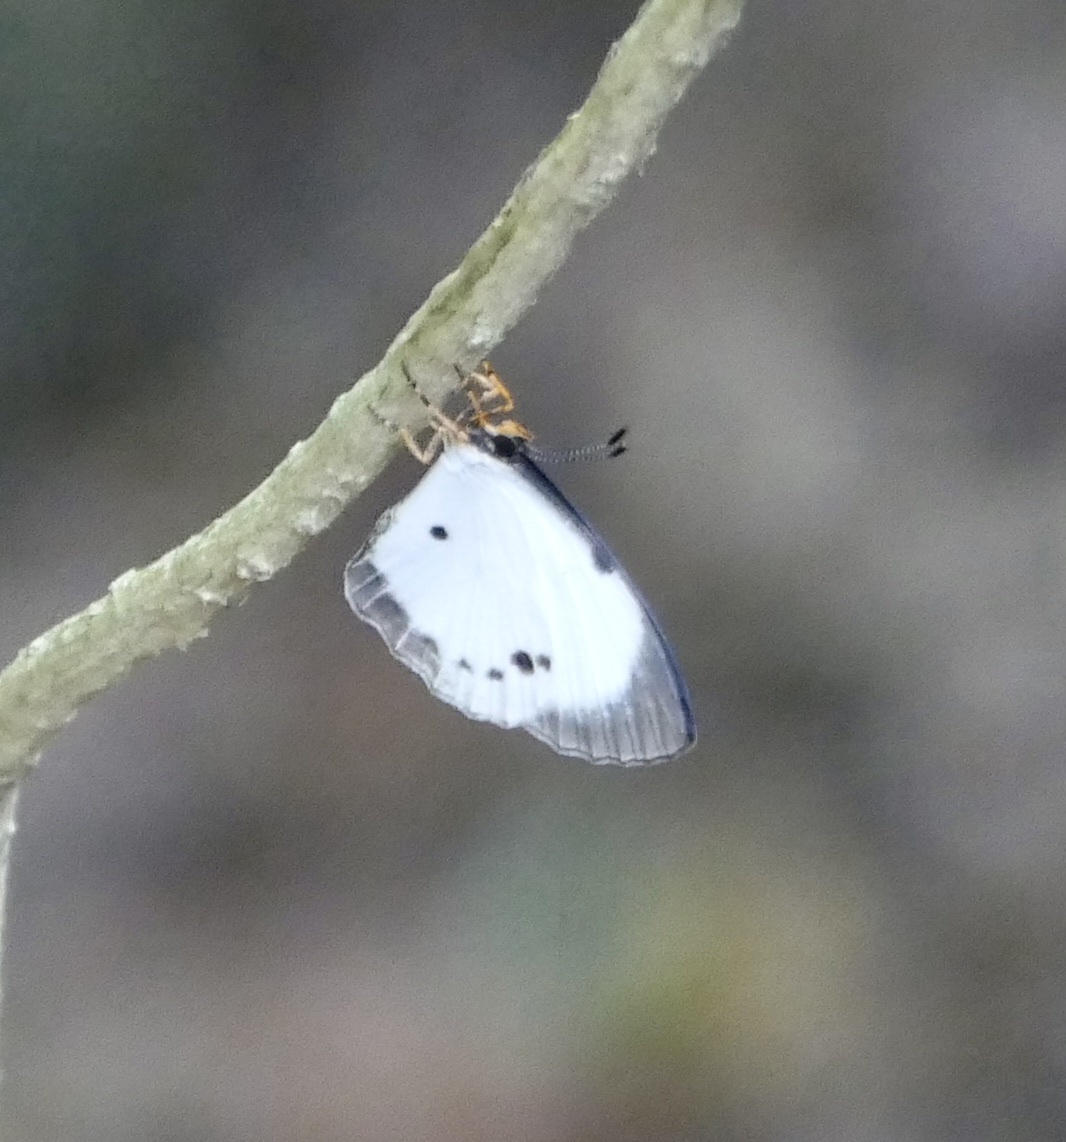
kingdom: Animalia
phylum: Arthropoda
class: Insecta
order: Lepidoptera
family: Lycaenidae
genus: Larinopoda
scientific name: Larinopoda aspidos
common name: Nigerian pierid blue
